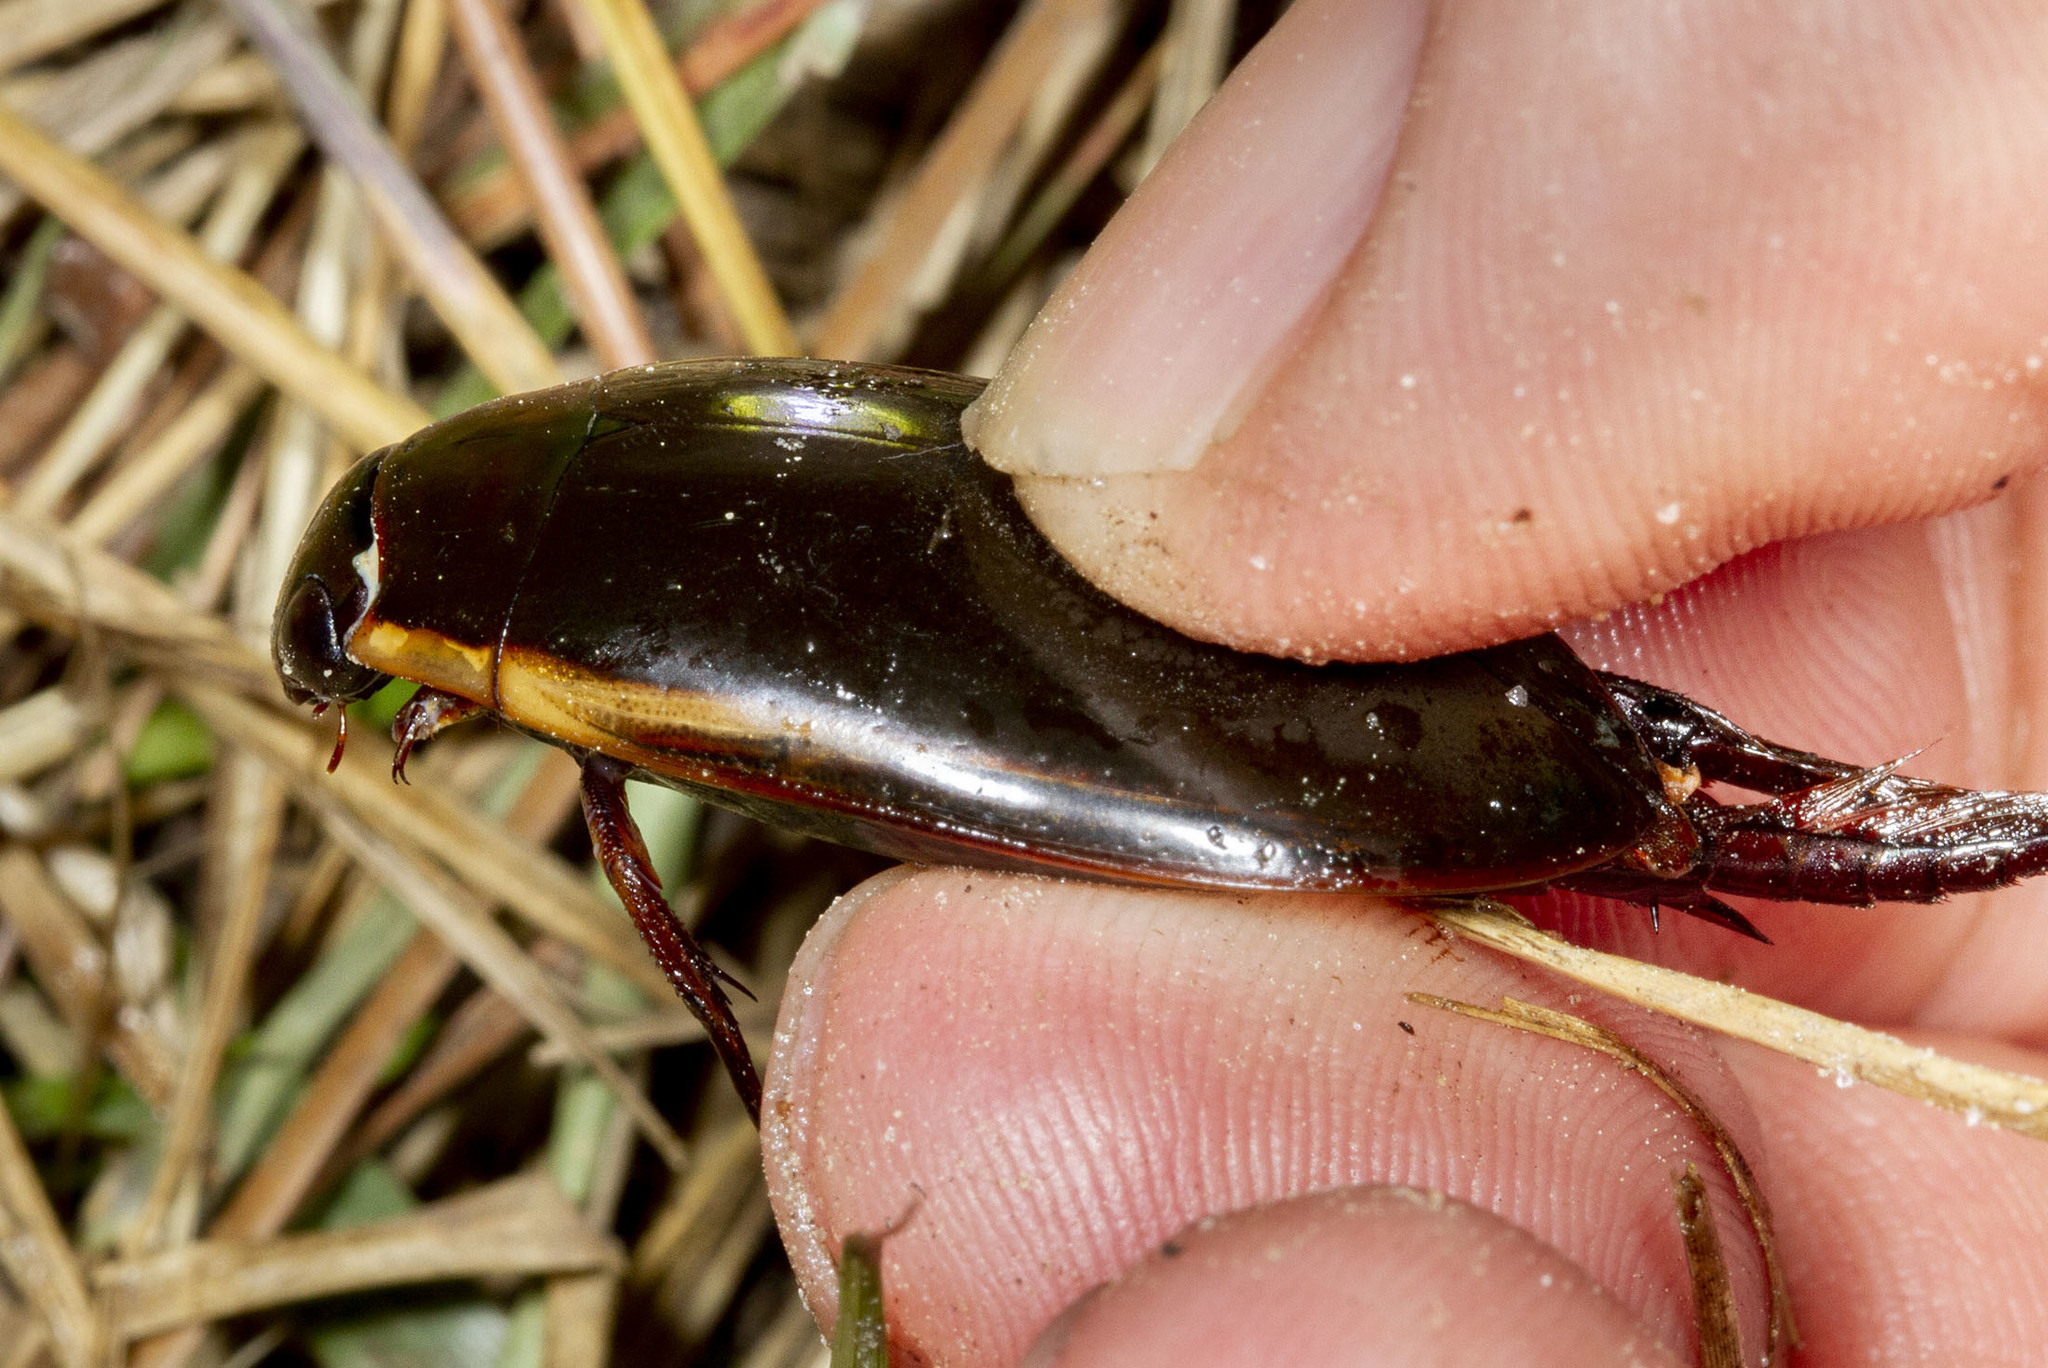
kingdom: Animalia
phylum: Arthropoda
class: Insecta
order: Coleoptera
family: Dytiscidae
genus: Cybister
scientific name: Cybister fimbriolatus
